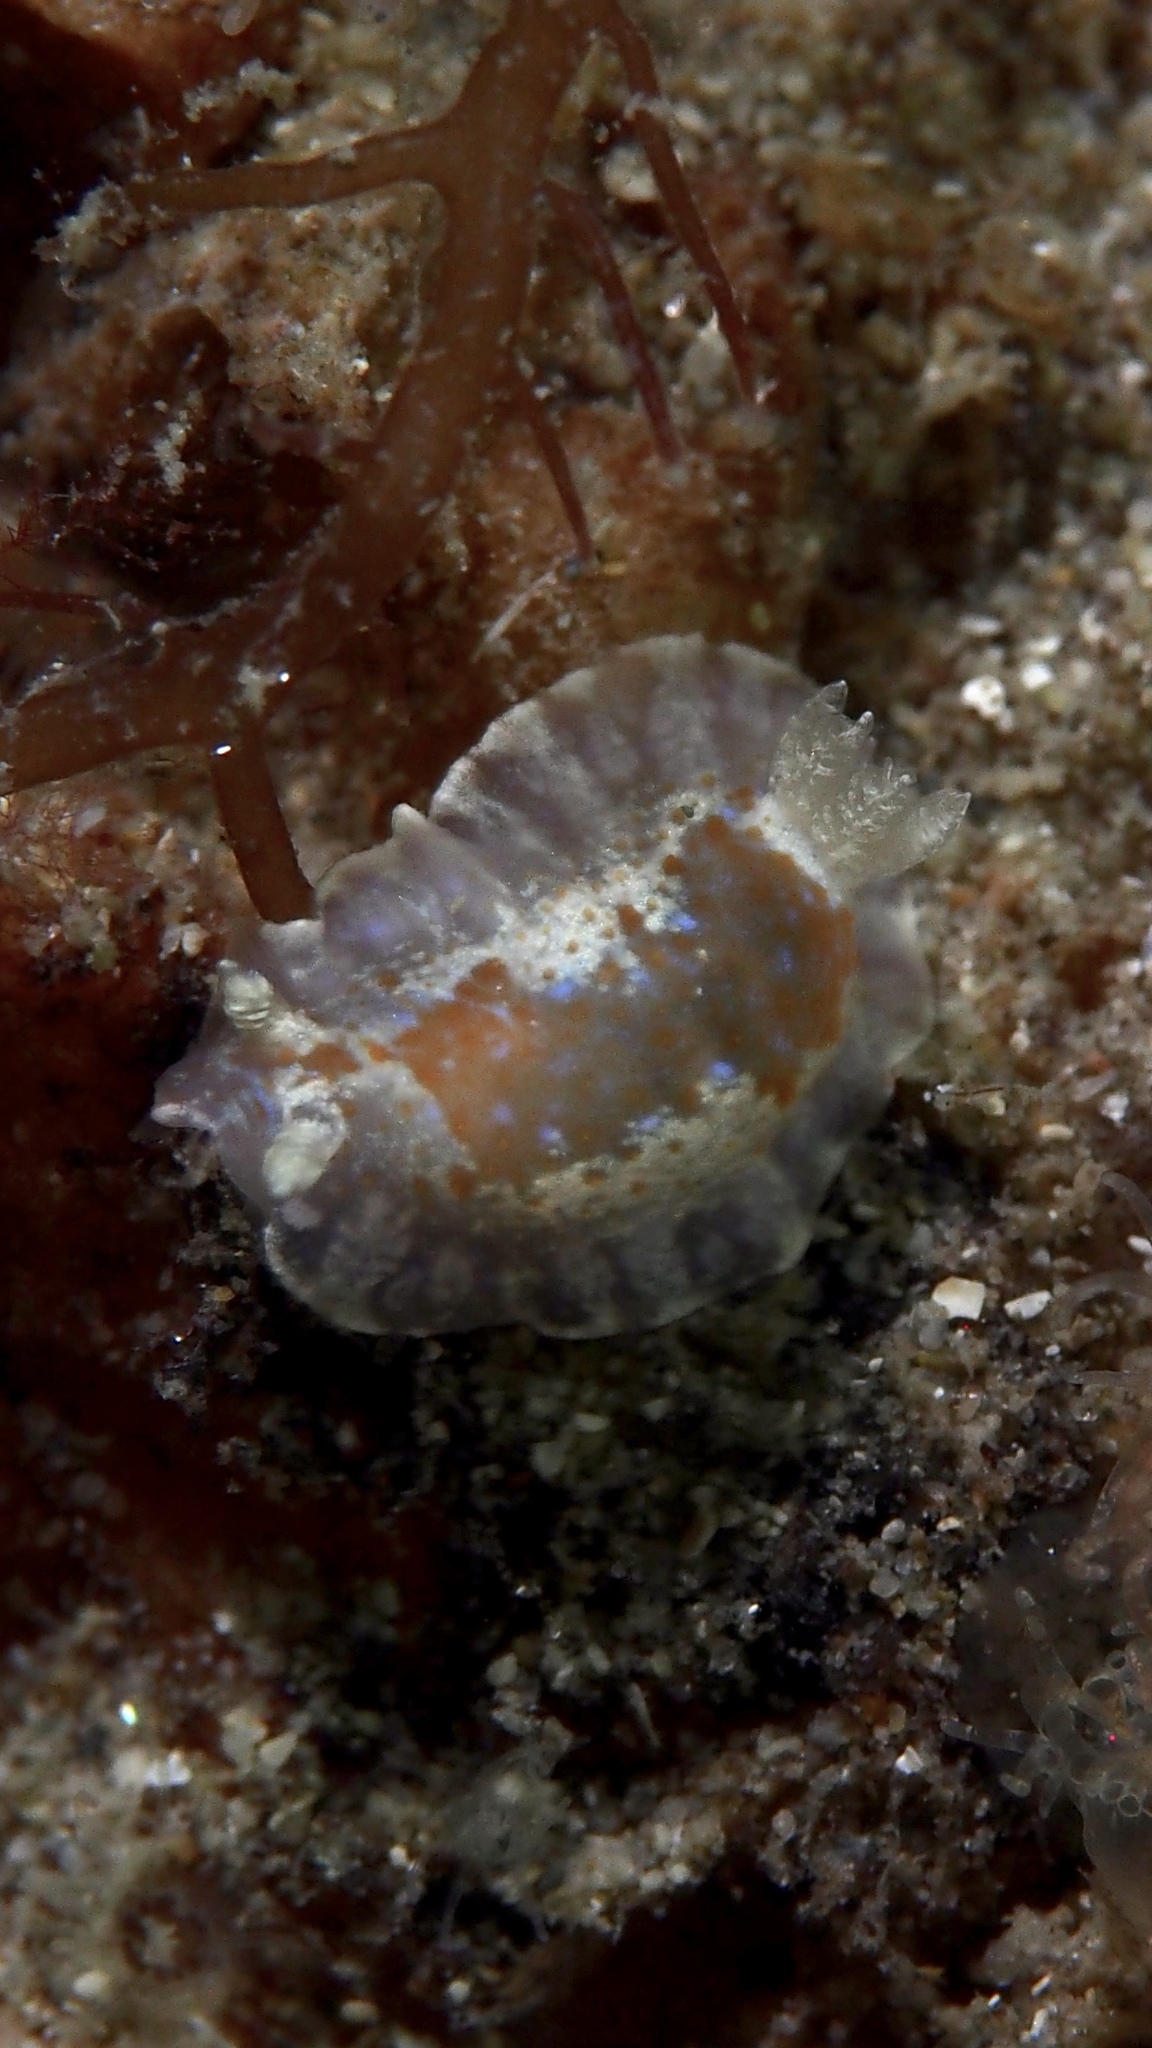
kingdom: Animalia
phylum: Mollusca
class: Gastropoda
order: Nudibranchia
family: Chromodorididae
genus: Chromodoris
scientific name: Chromodoris alternata
